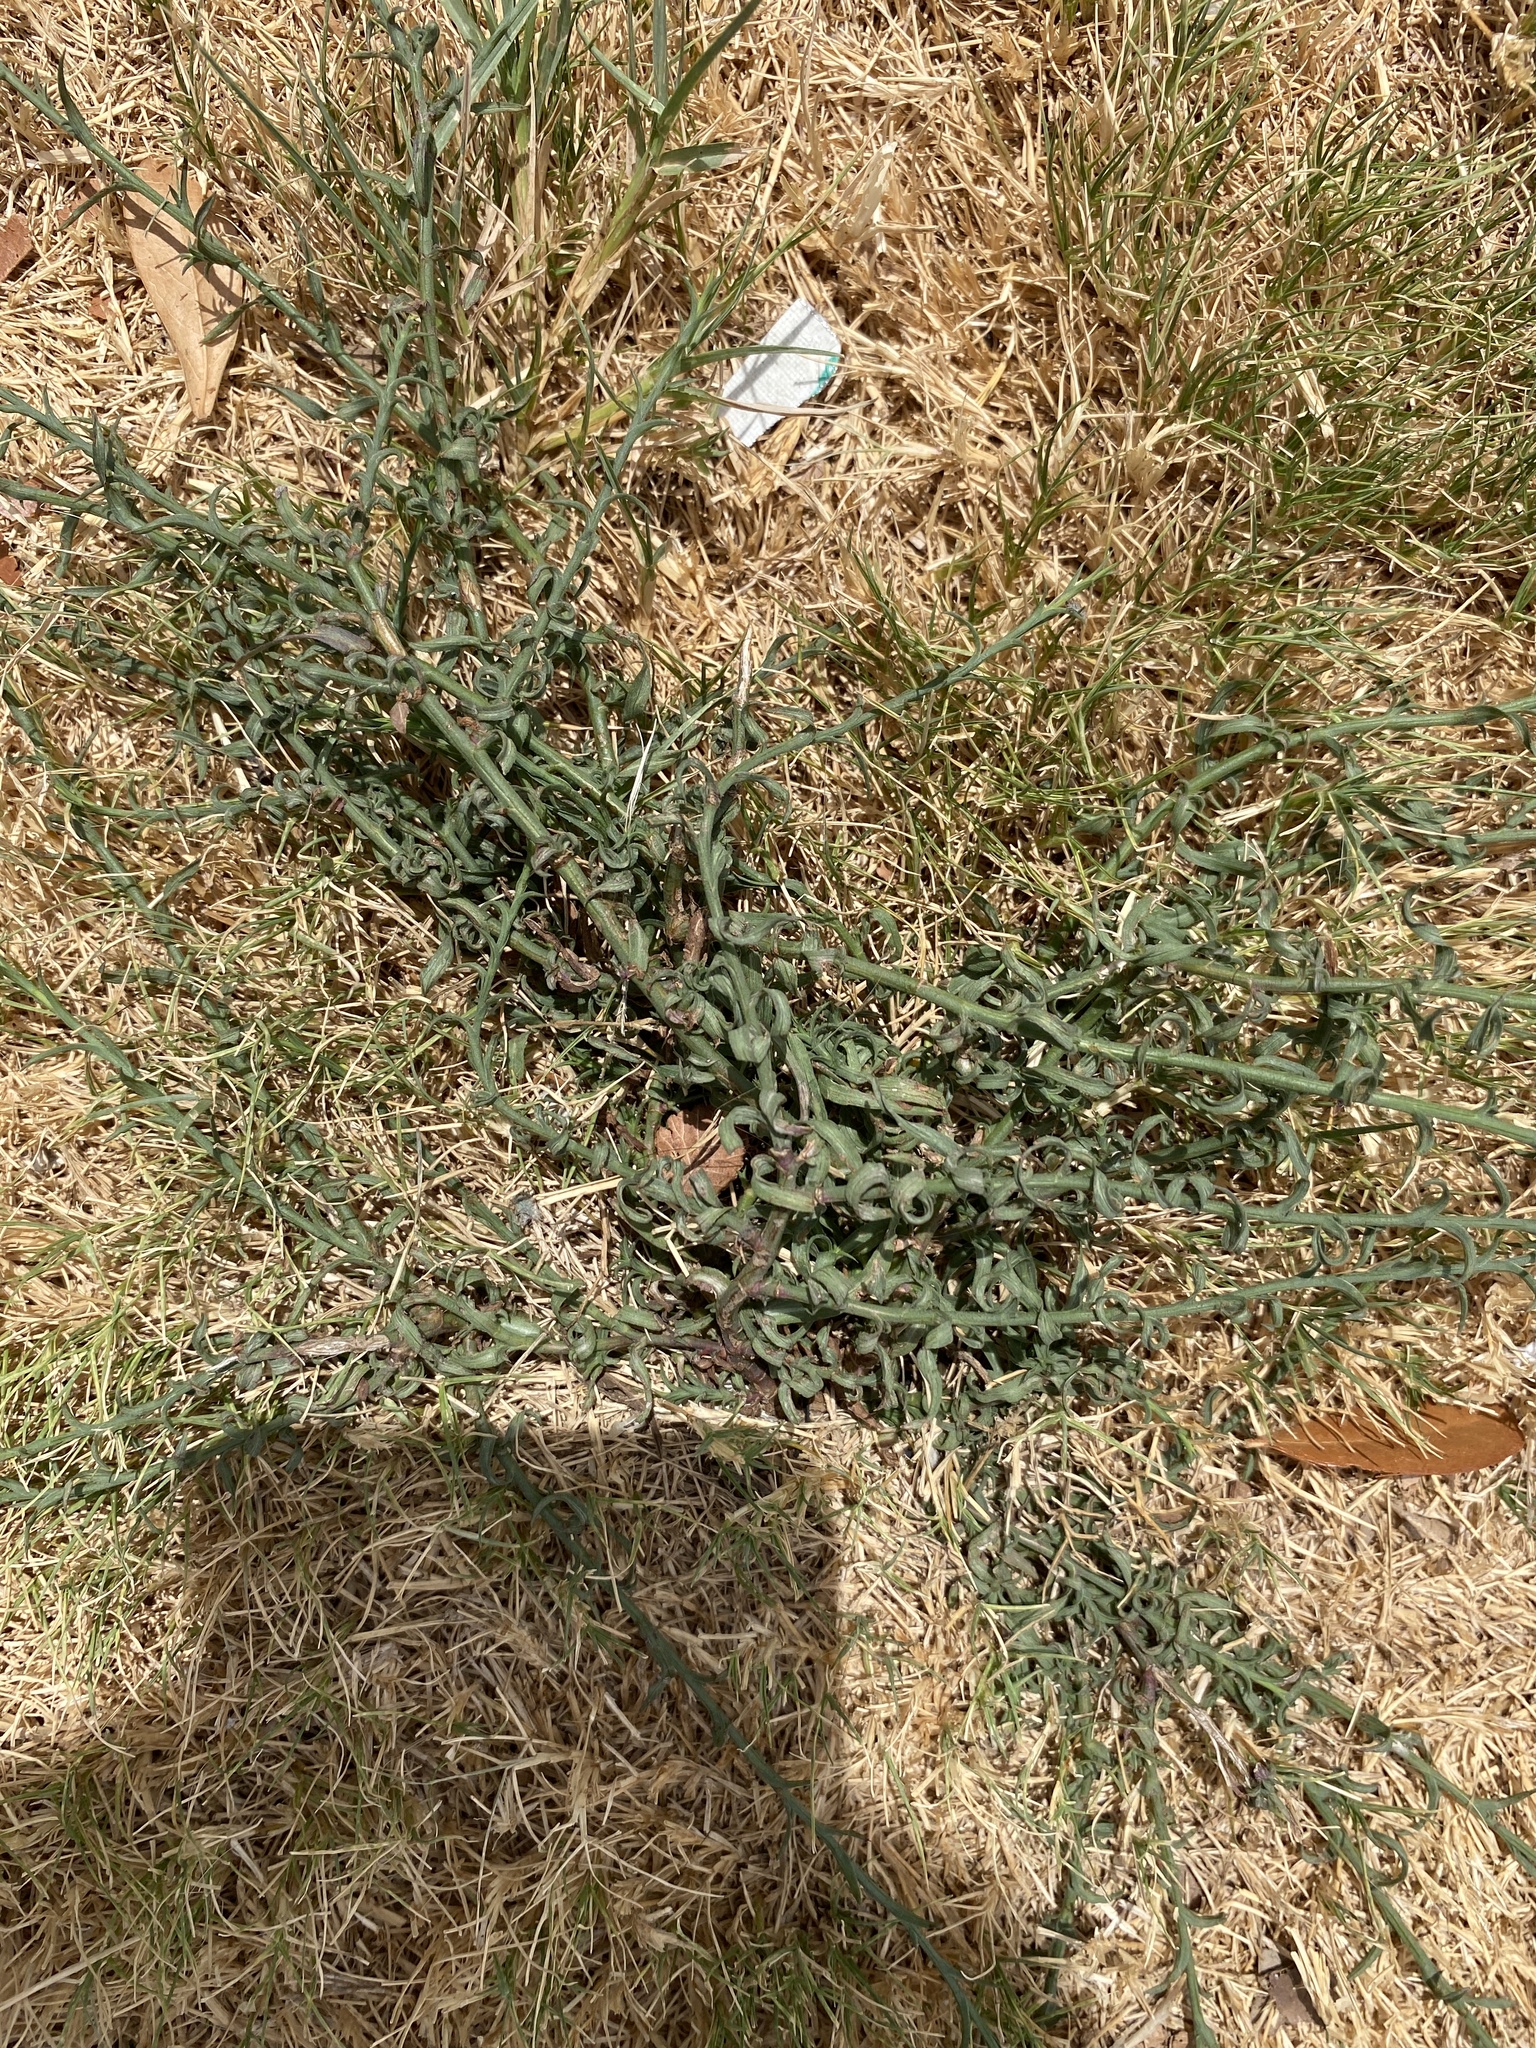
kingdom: Plantae
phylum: Tracheophyta
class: Magnoliopsida
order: Asterales
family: Asteraceae
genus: Symphyotrichum
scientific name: Symphyotrichum divaricatum
